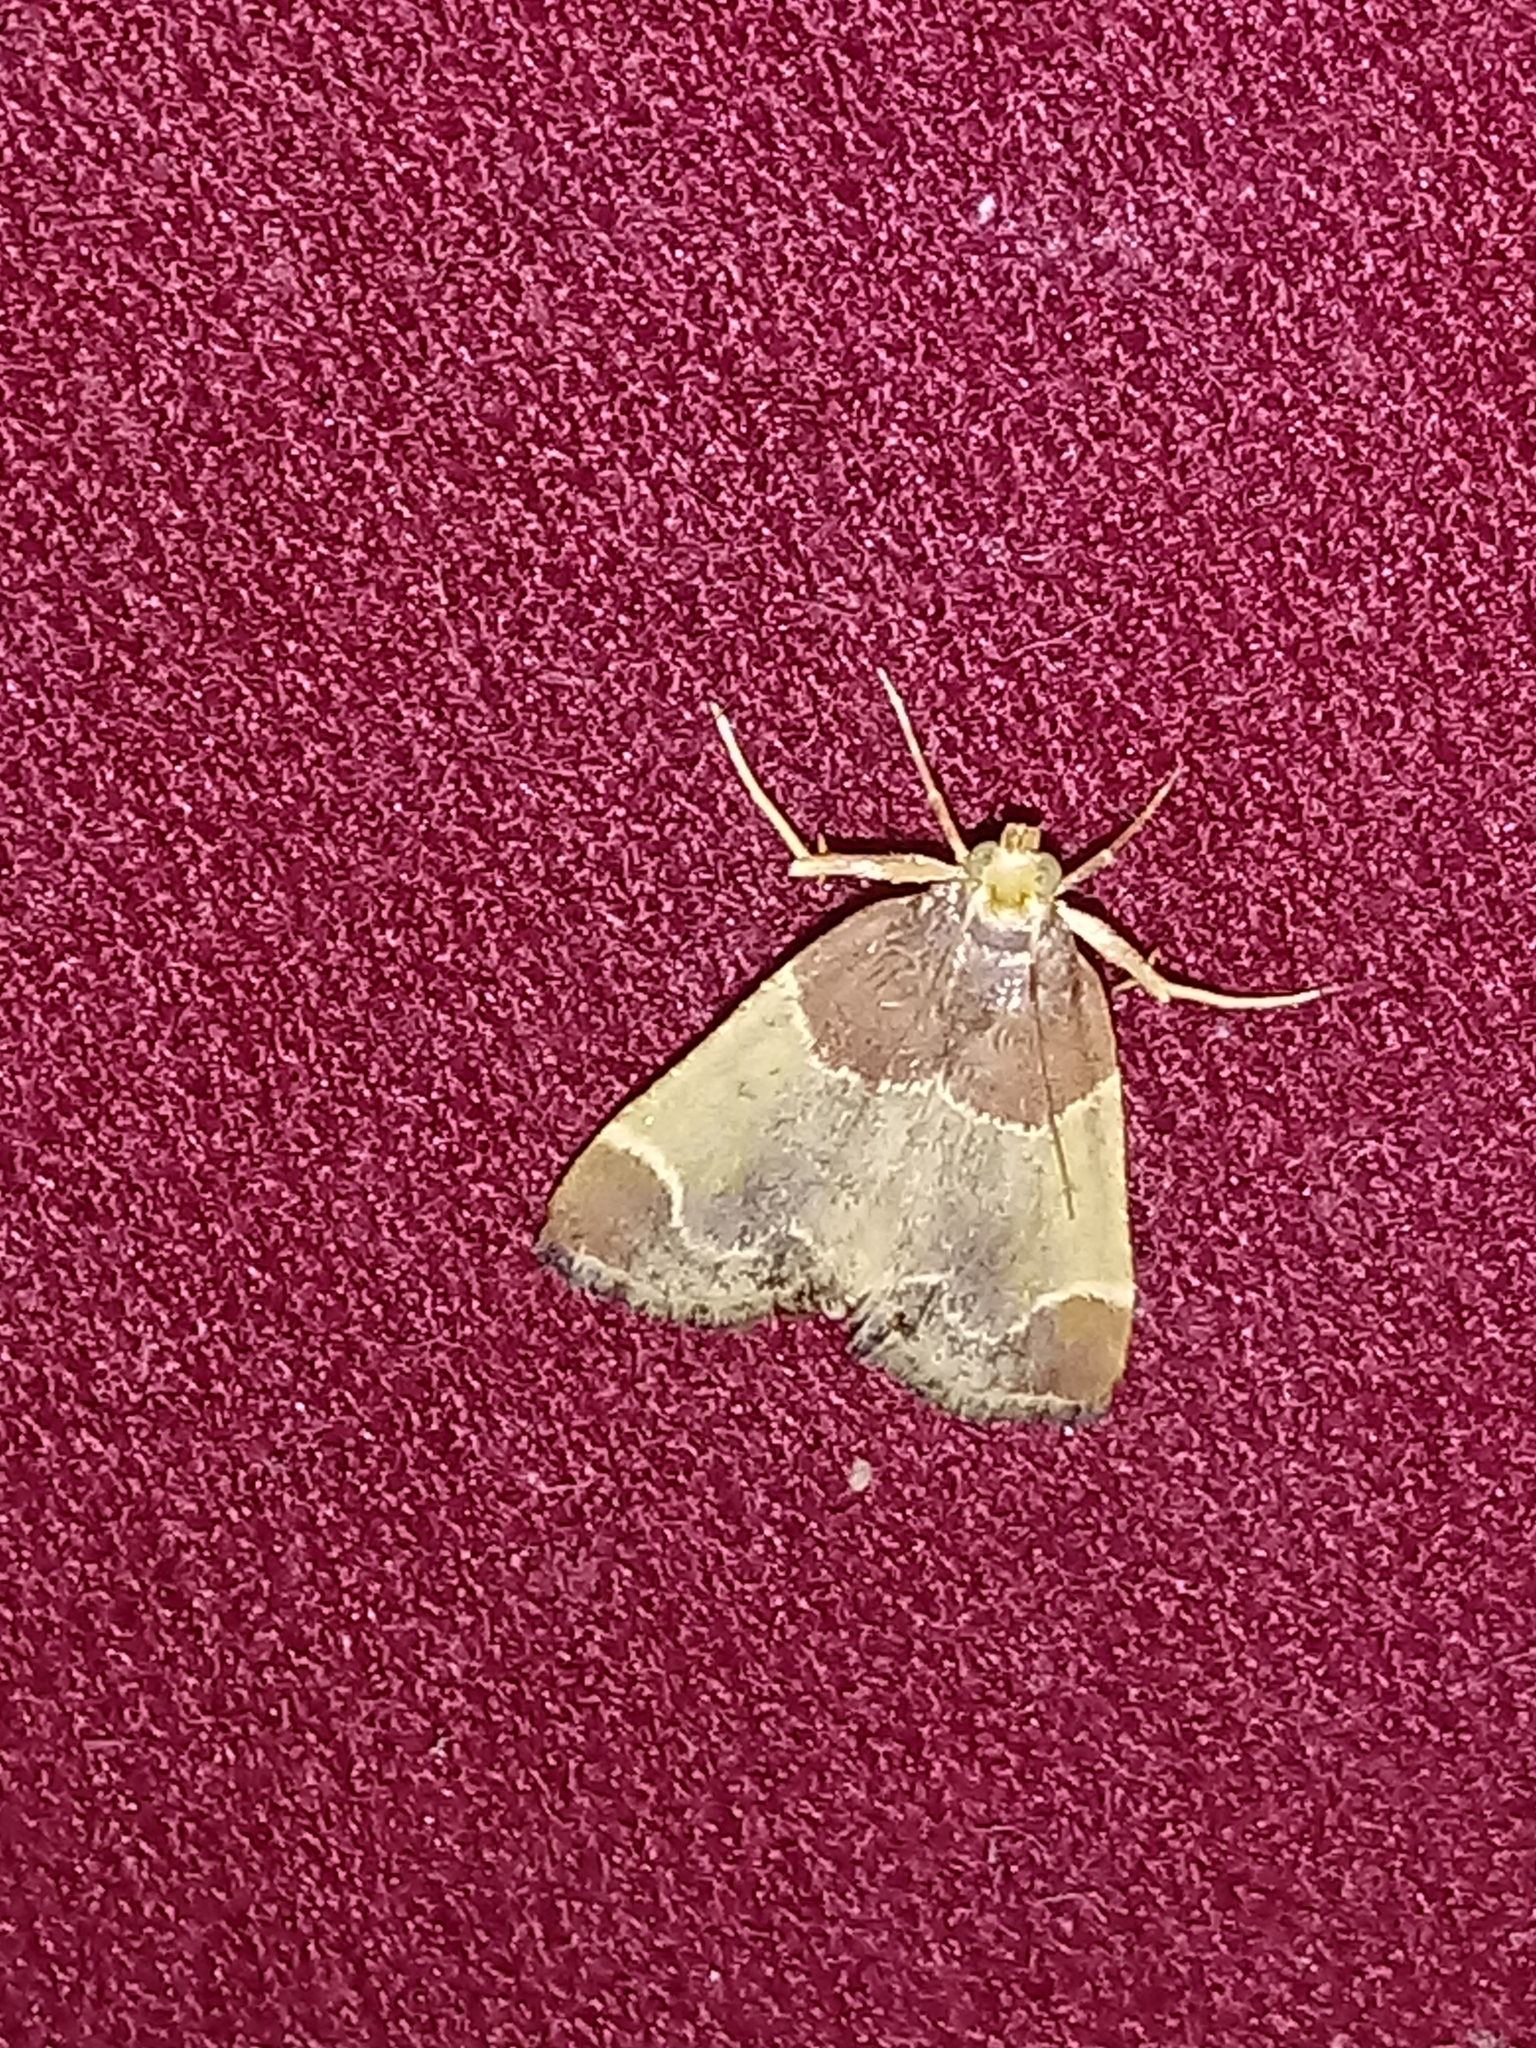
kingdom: Animalia
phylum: Arthropoda
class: Insecta
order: Lepidoptera
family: Pyralidae
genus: Pyralis
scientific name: Pyralis farinalis
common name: Meal moth
